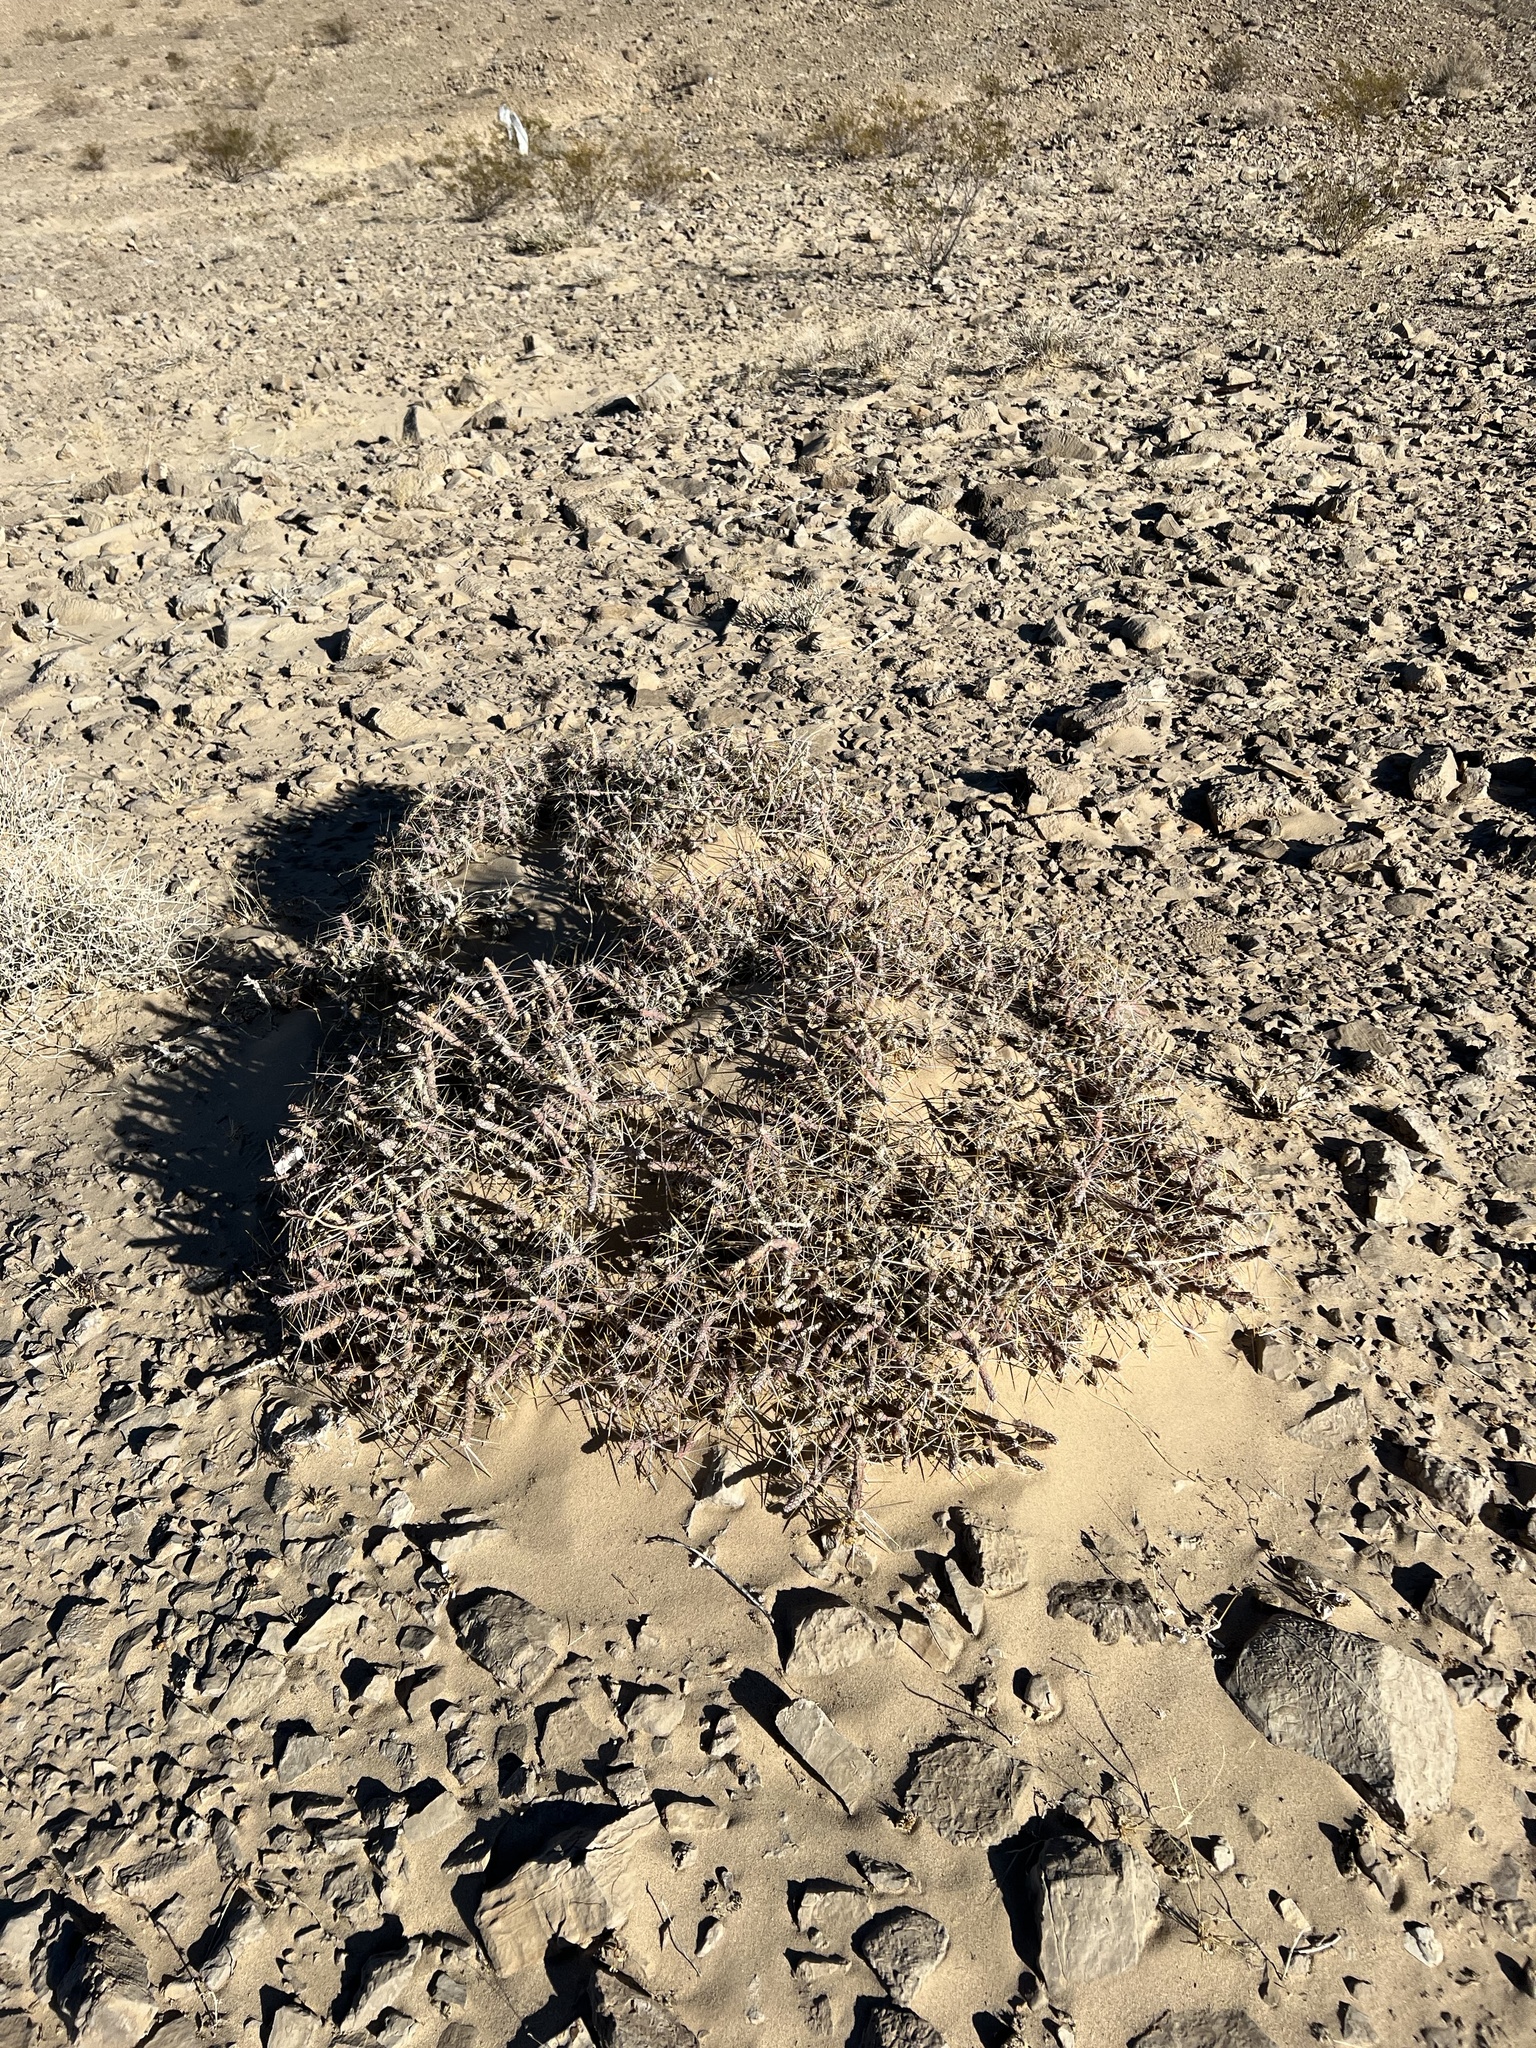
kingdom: Plantae
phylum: Tracheophyta
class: Magnoliopsida
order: Caryophyllales
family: Cactaceae
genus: Cylindropuntia
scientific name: Cylindropuntia ramosissima
